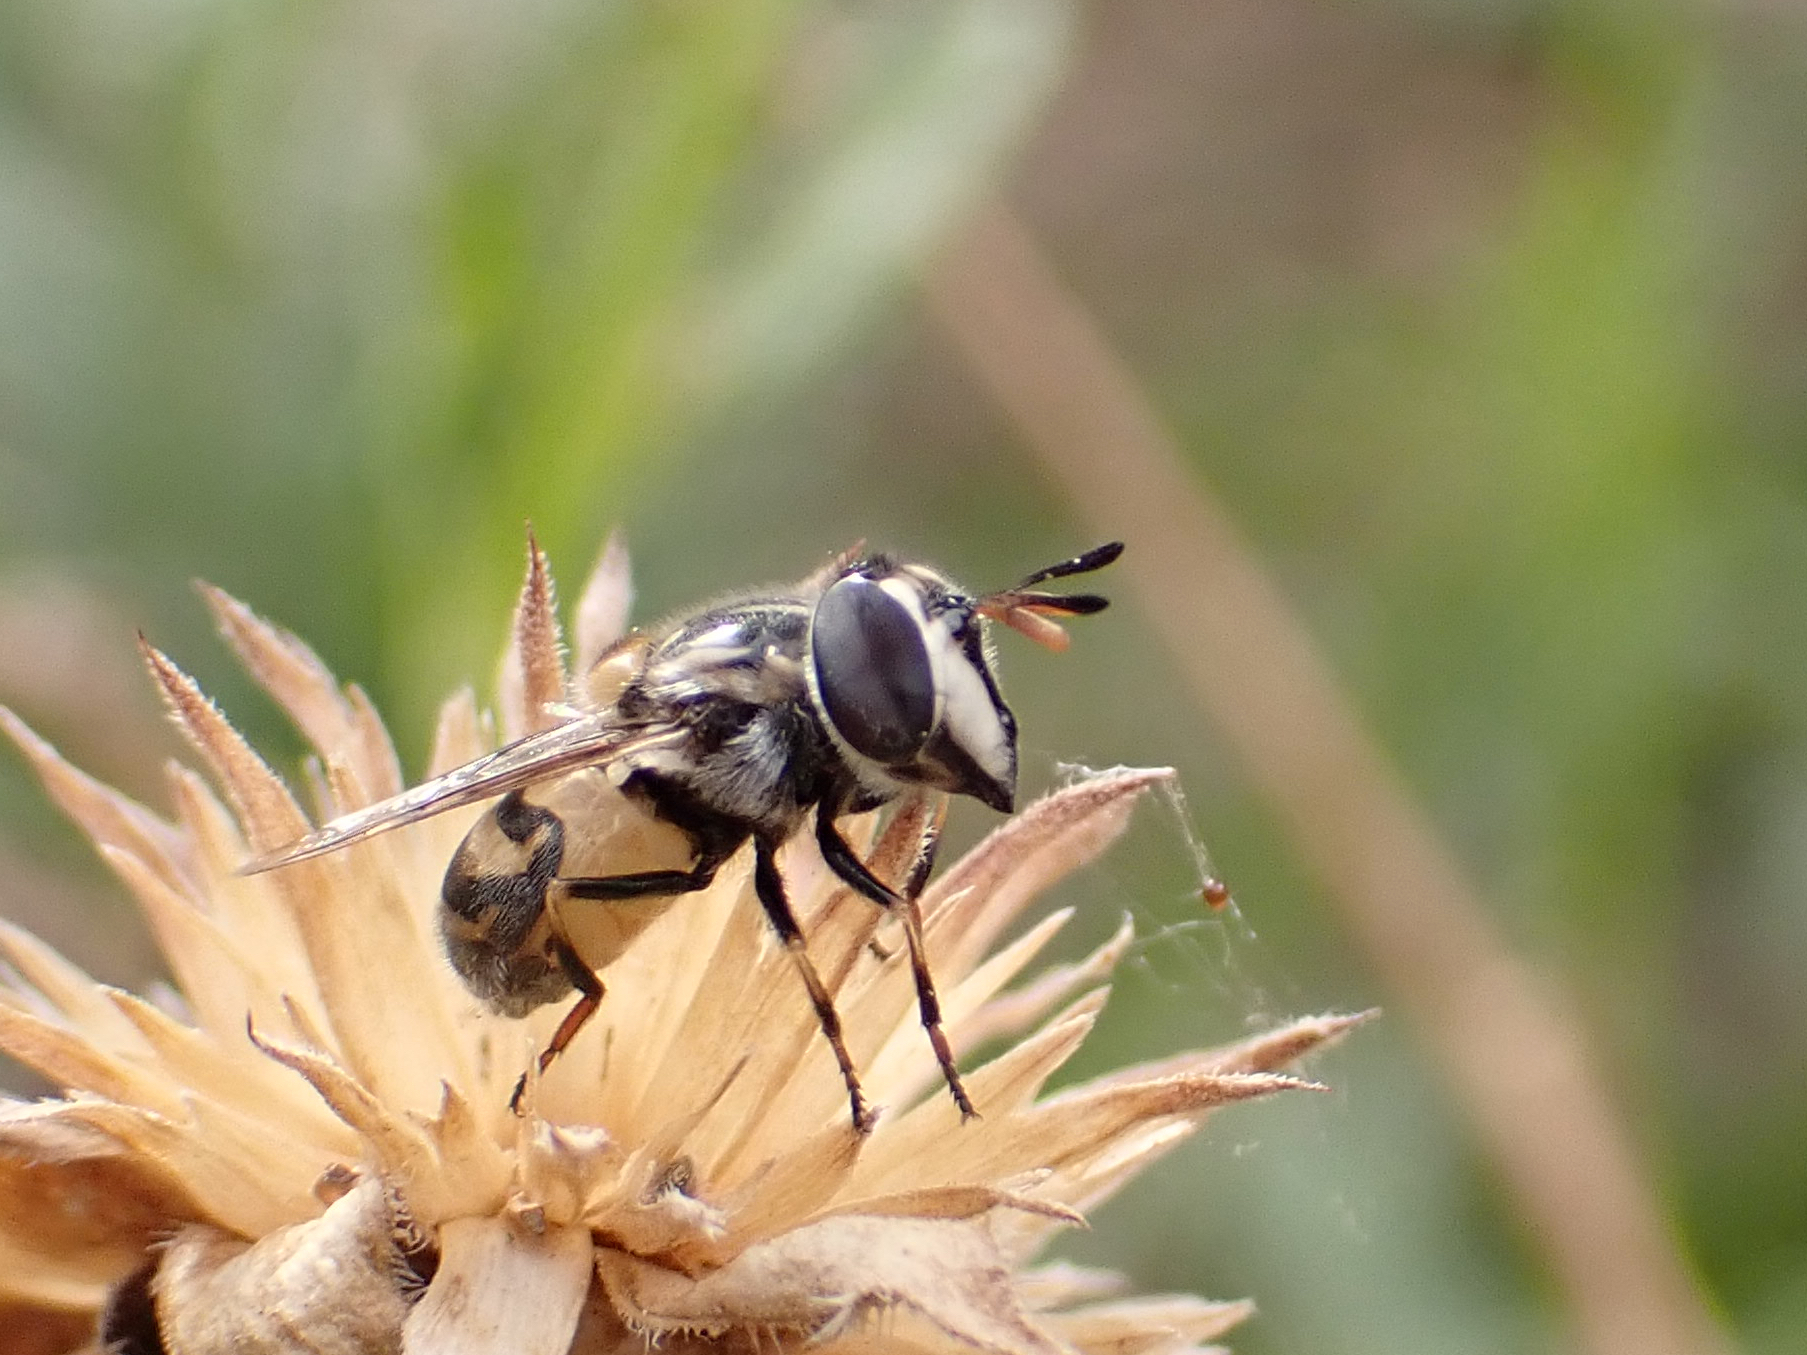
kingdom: Animalia
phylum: Arthropoda
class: Insecta
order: Diptera
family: Syrphidae
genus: Copestylum
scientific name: Copestylum marginatum
